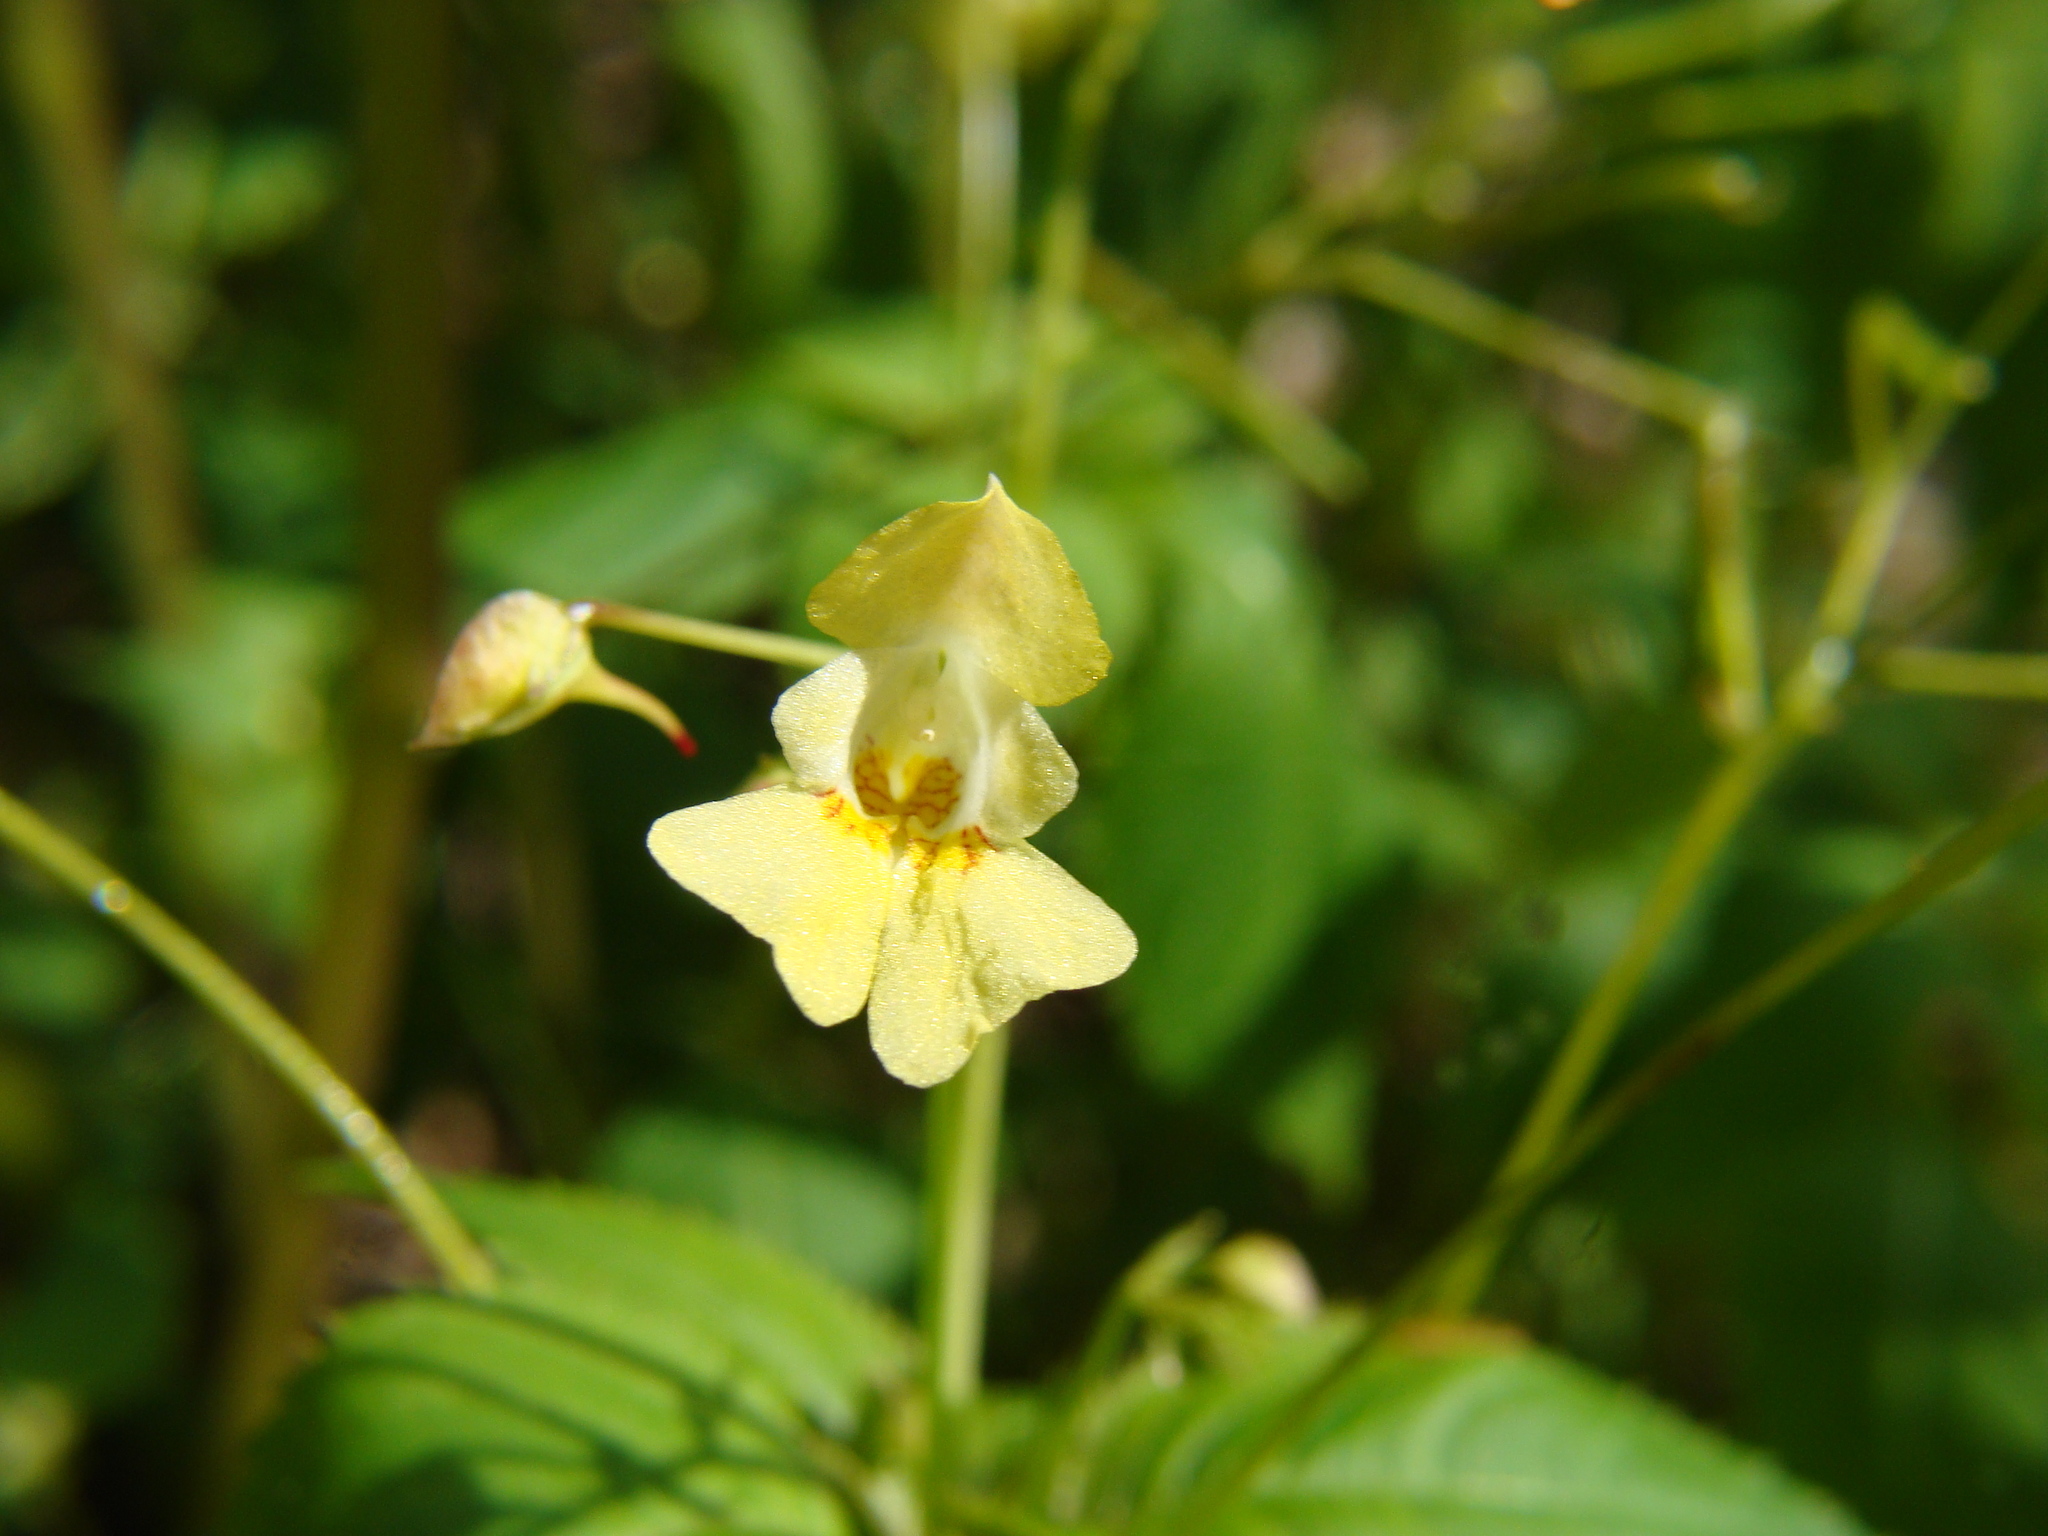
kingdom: Plantae
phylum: Tracheophyta
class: Magnoliopsida
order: Ericales
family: Balsaminaceae
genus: Impatiens
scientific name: Impatiens parviflora
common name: Small balsam
